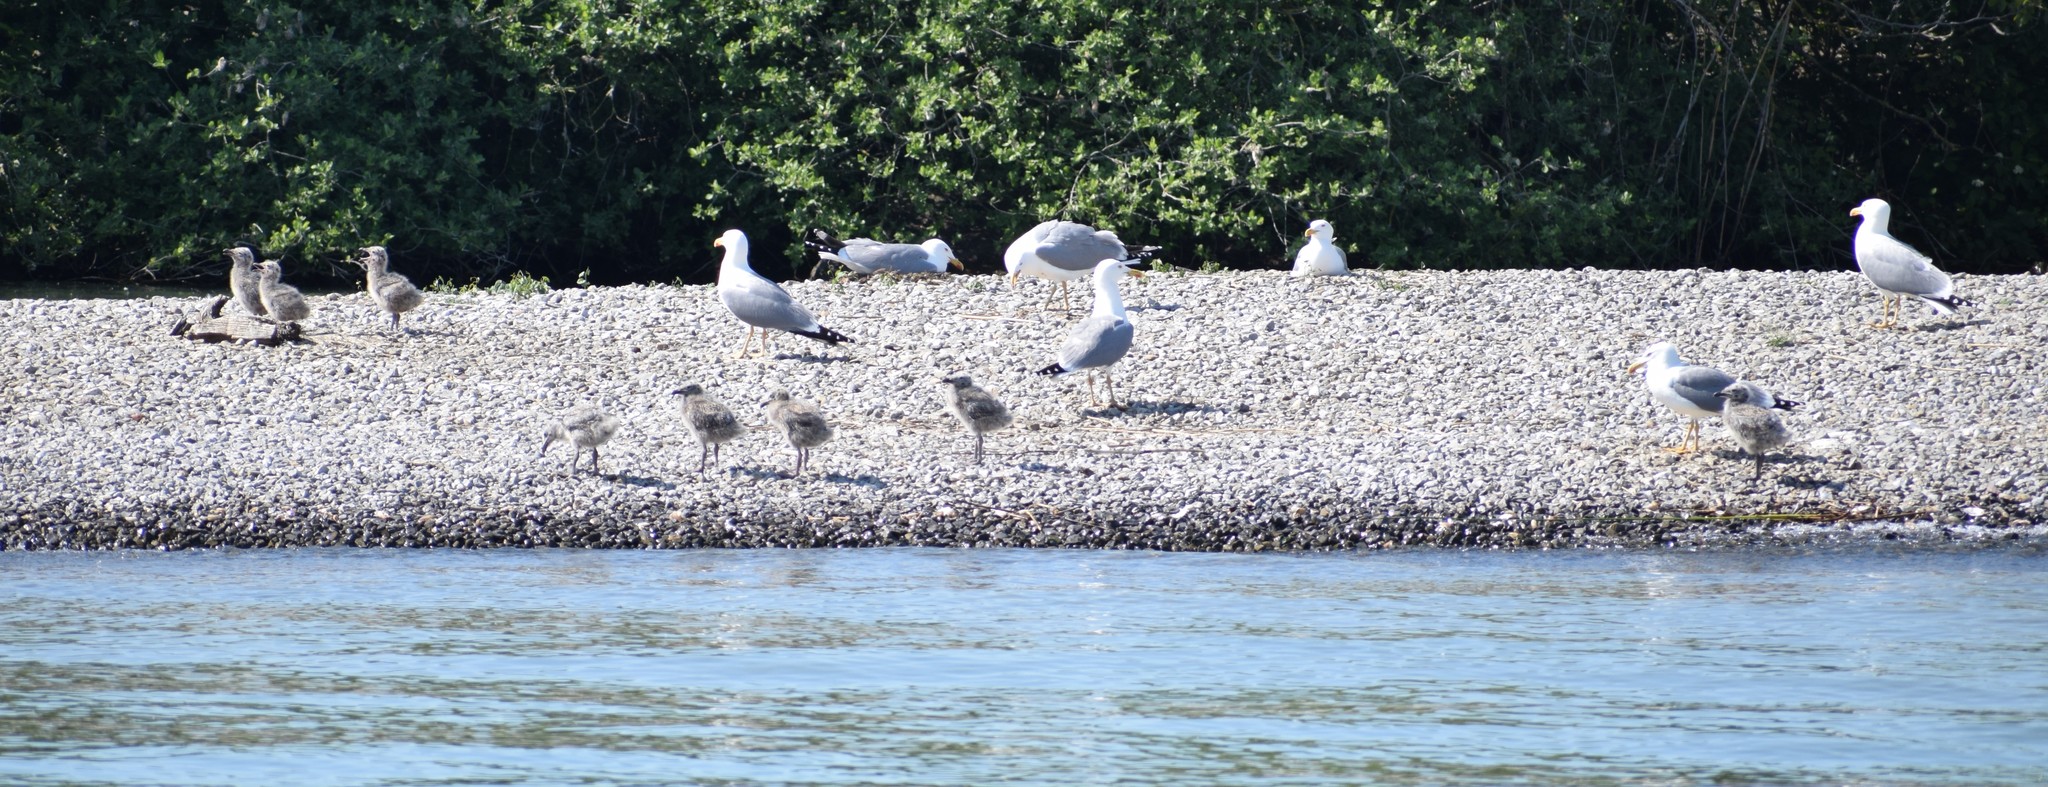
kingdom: Animalia
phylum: Chordata
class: Aves
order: Charadriiformes
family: Laridae
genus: Larus
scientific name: Larus michahellis
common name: Yellow-legged gull
